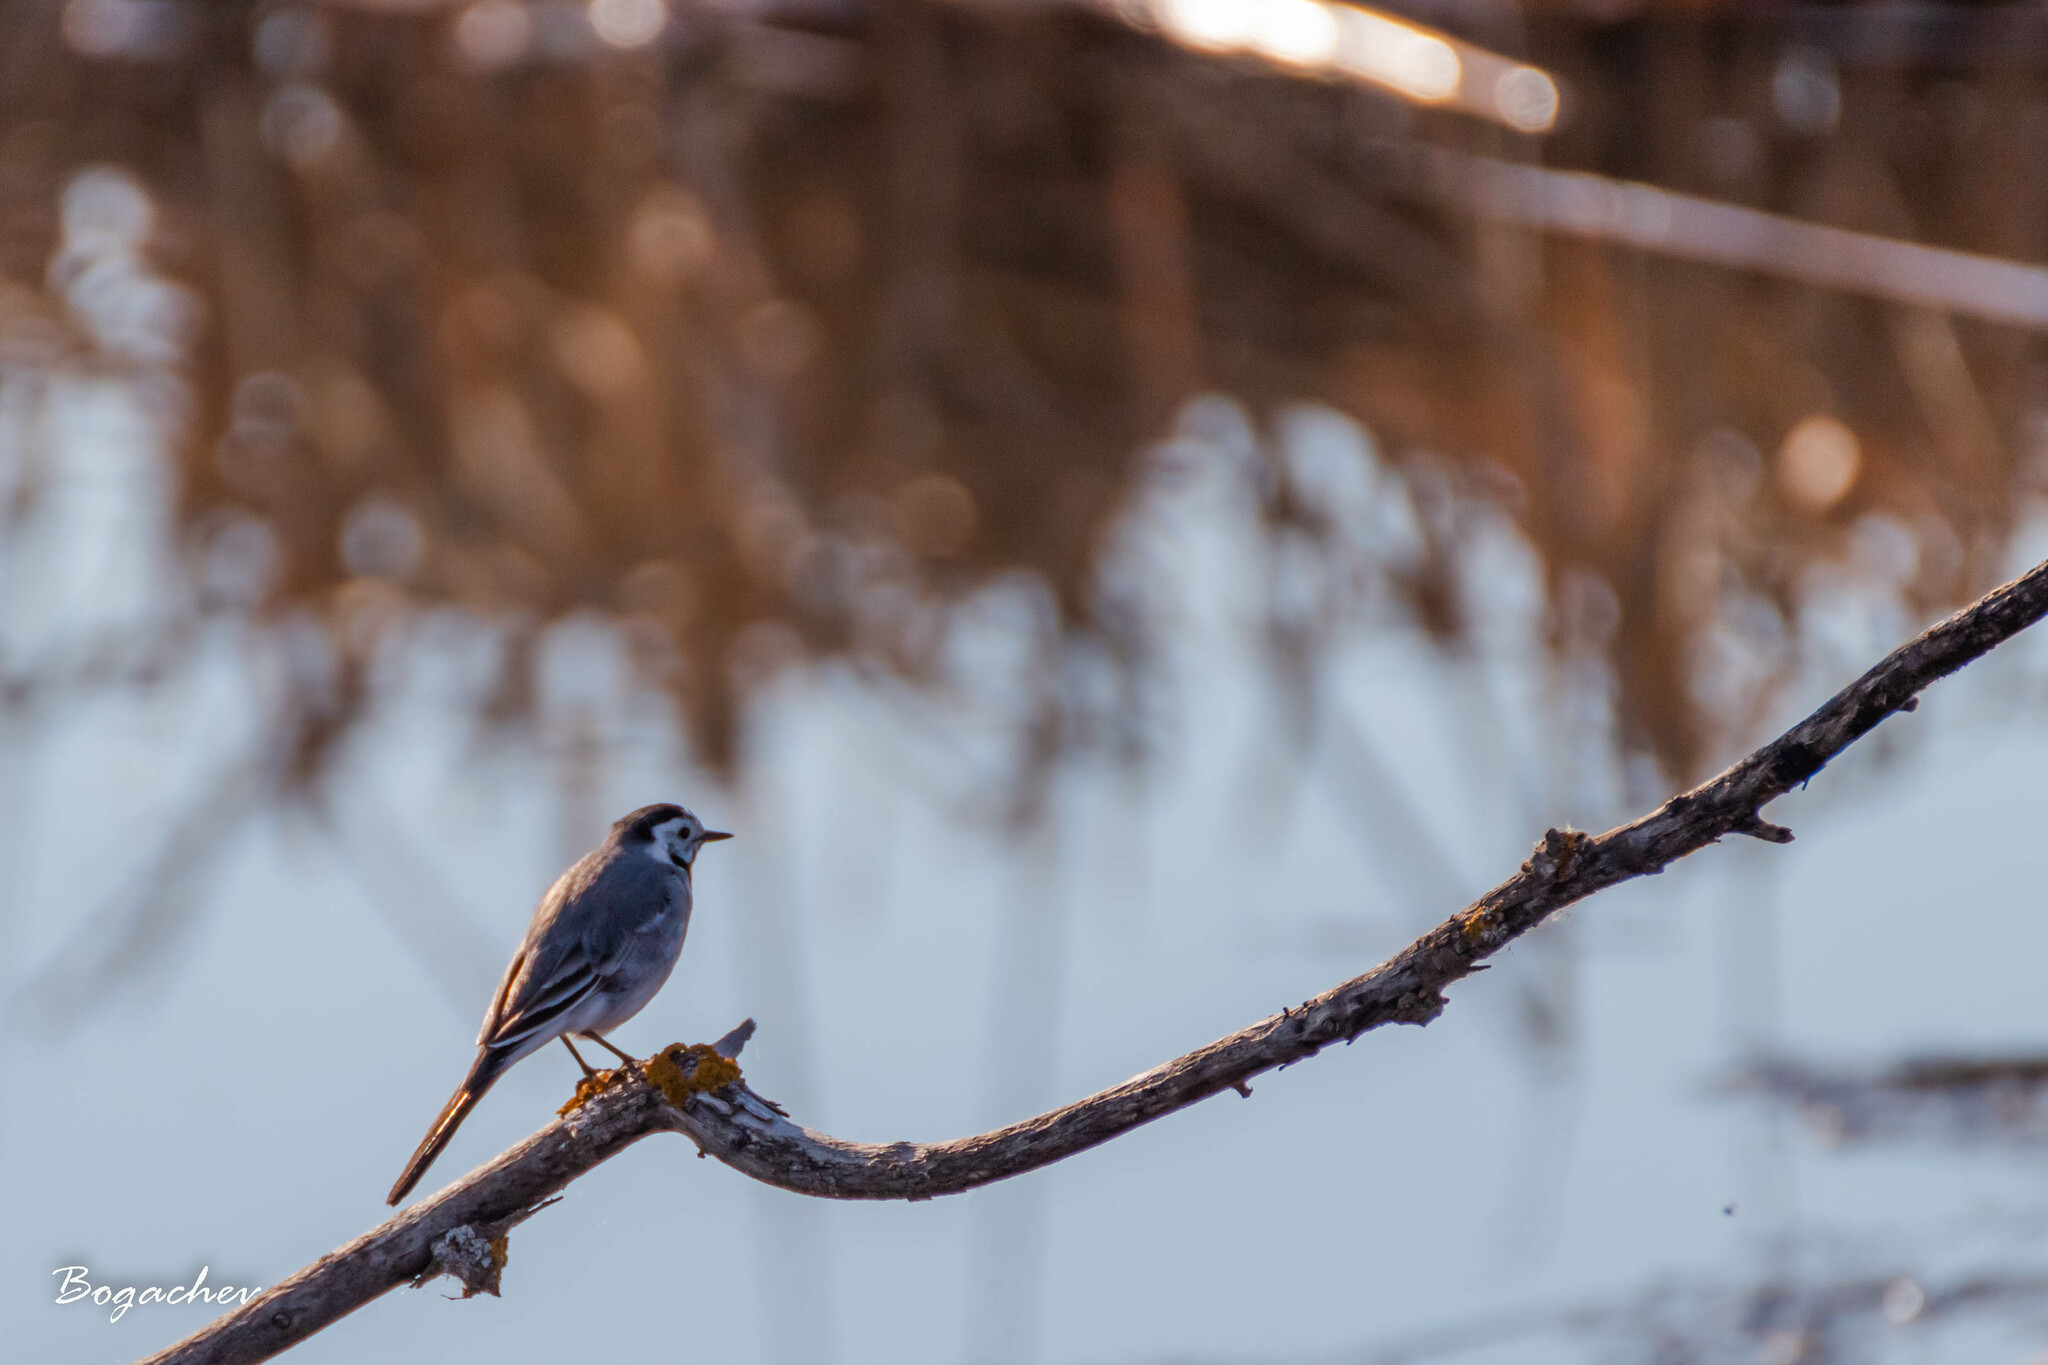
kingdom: Animalia
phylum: Chordata
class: Aves
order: Passeriformes
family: Motacillidae
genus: Motacilla
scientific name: Motacilla alba
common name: White wagtail
